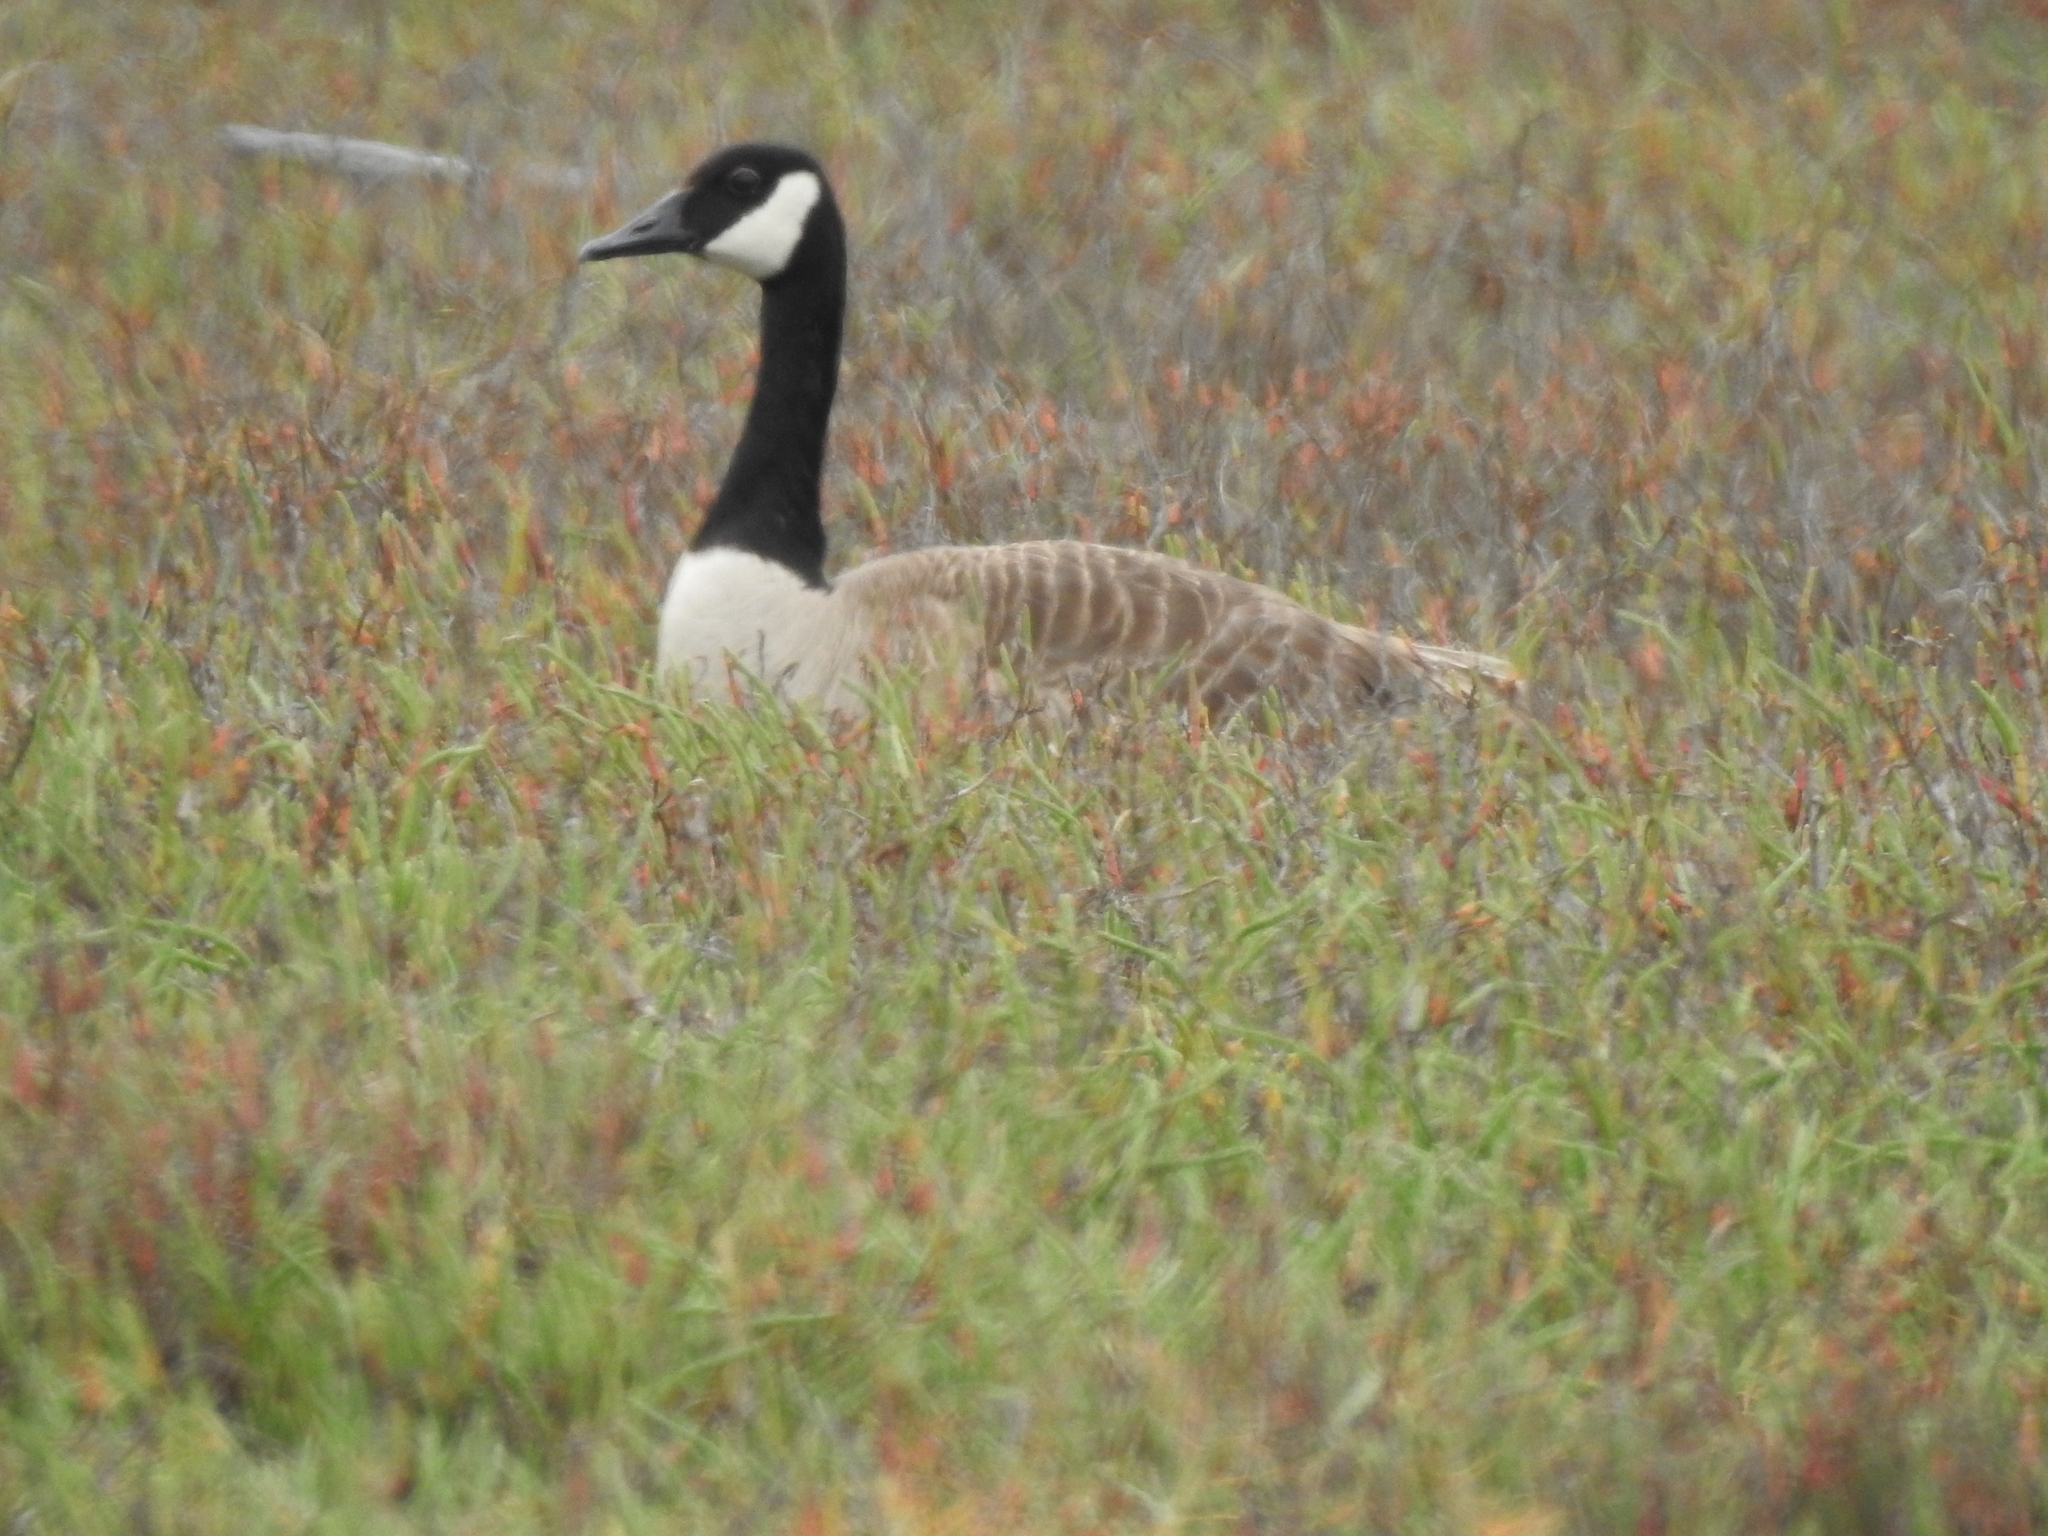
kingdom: Animalia
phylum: Chordata
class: Aves
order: Anseriformes
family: Anatidae
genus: Branta
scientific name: Branta canadensis
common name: Canada goose
